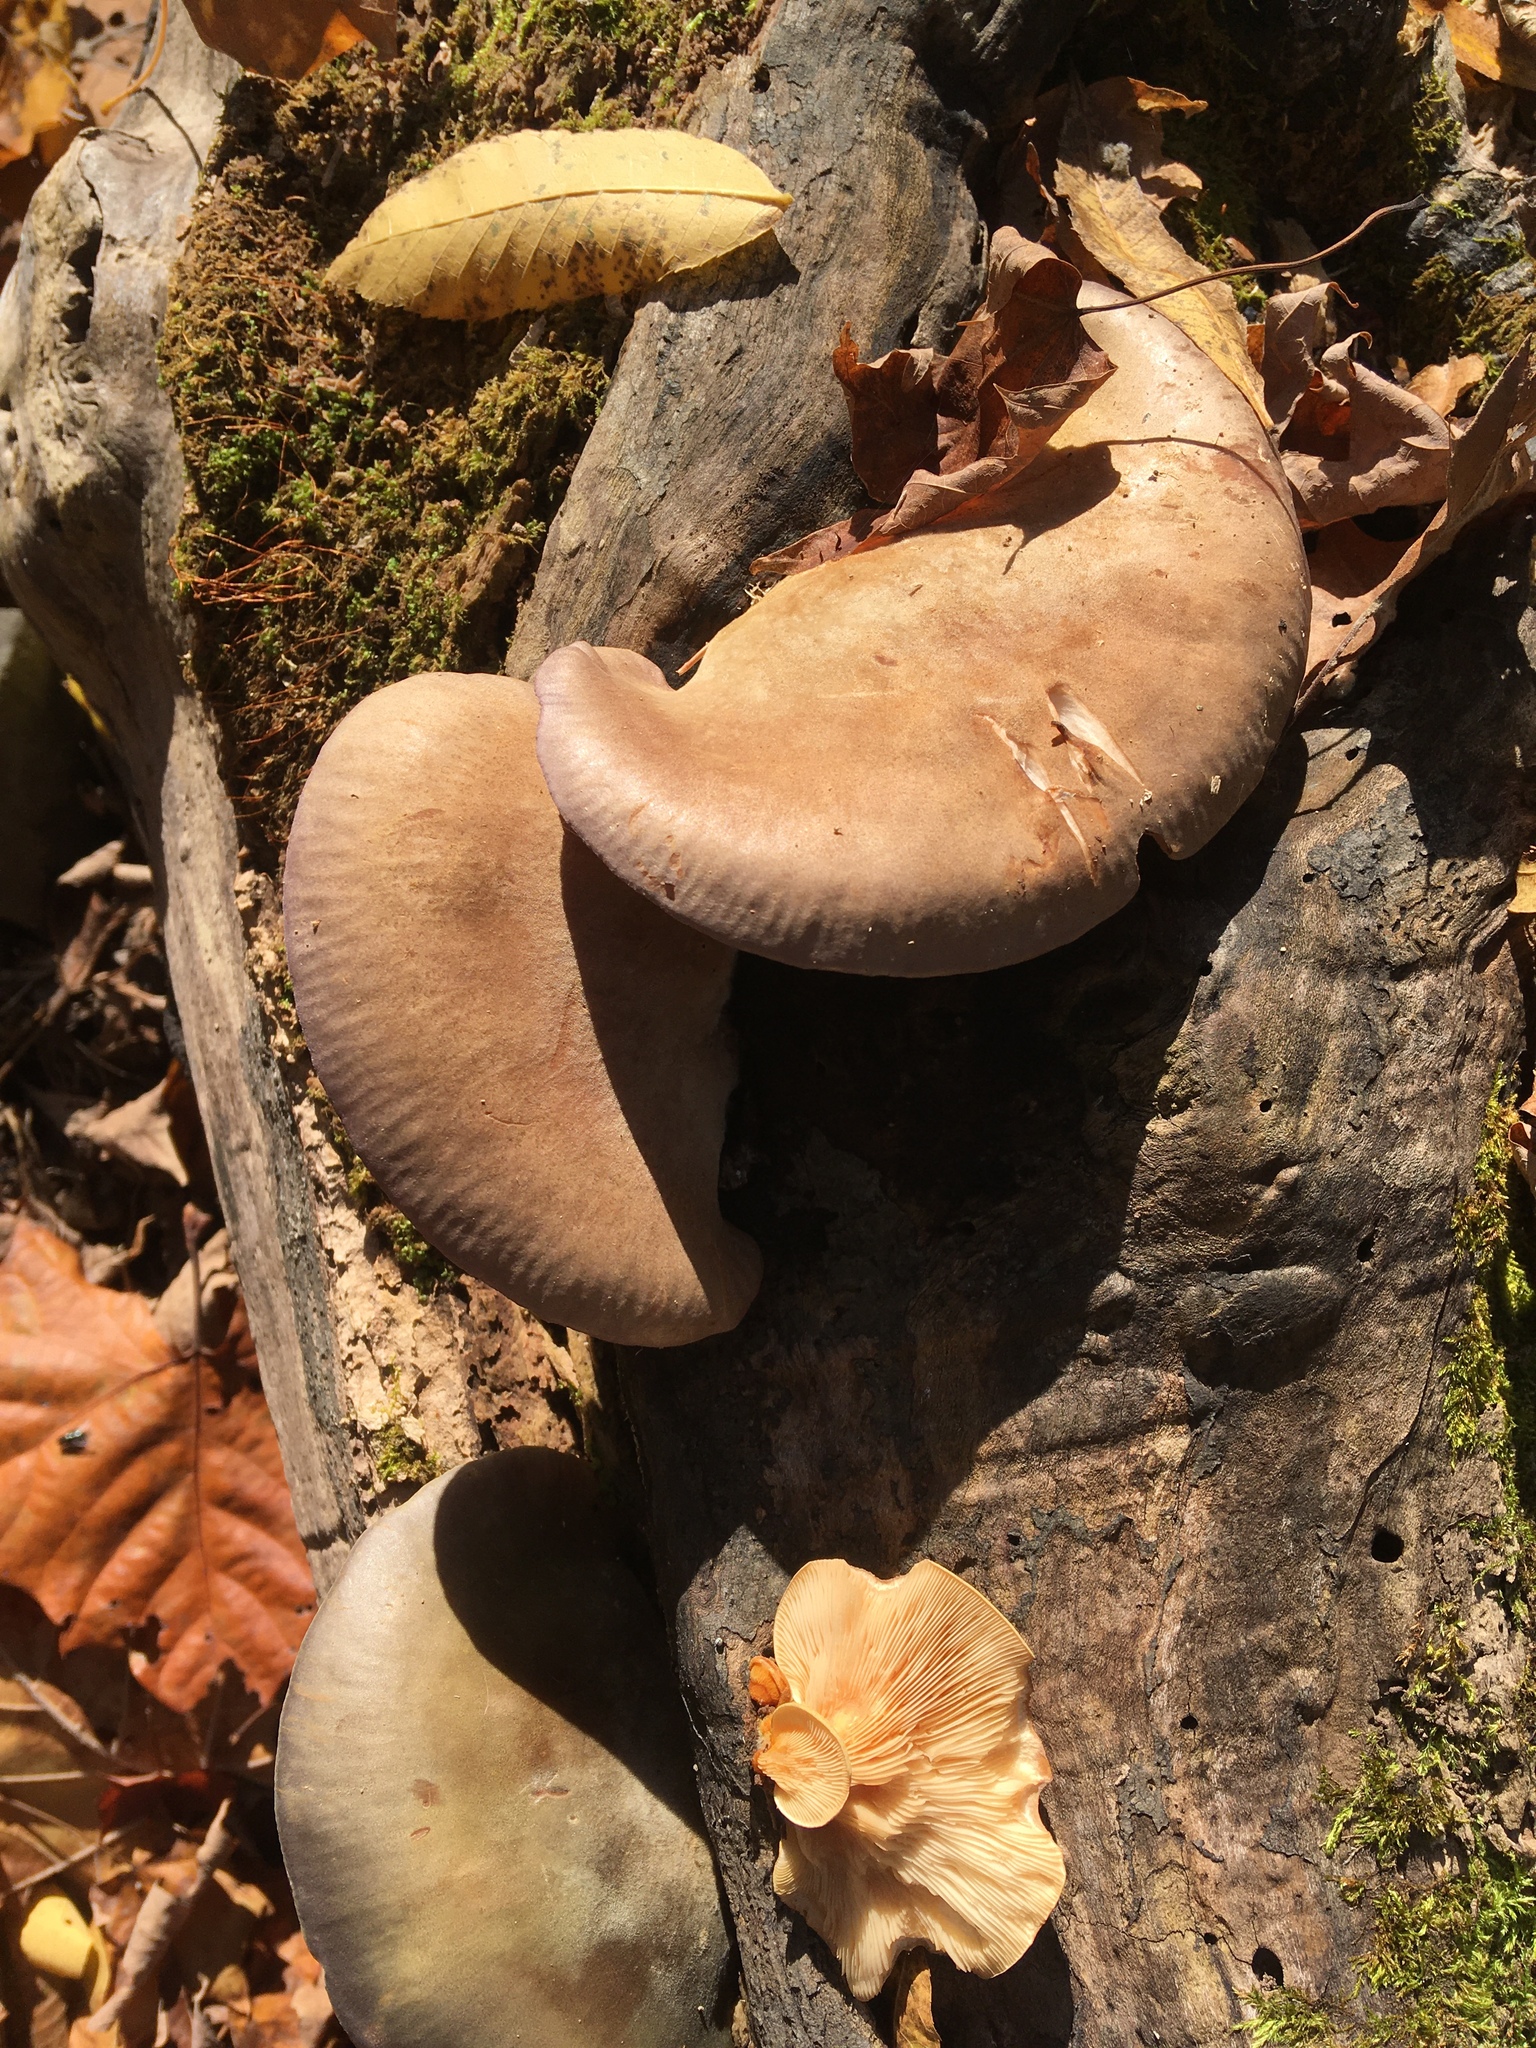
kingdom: Fungi
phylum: Basidiomycota
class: Agaricomycetes
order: Agaricales
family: Sarcomyxaceae
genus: Sarcomyxa
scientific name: Sarcomyxa serotina
